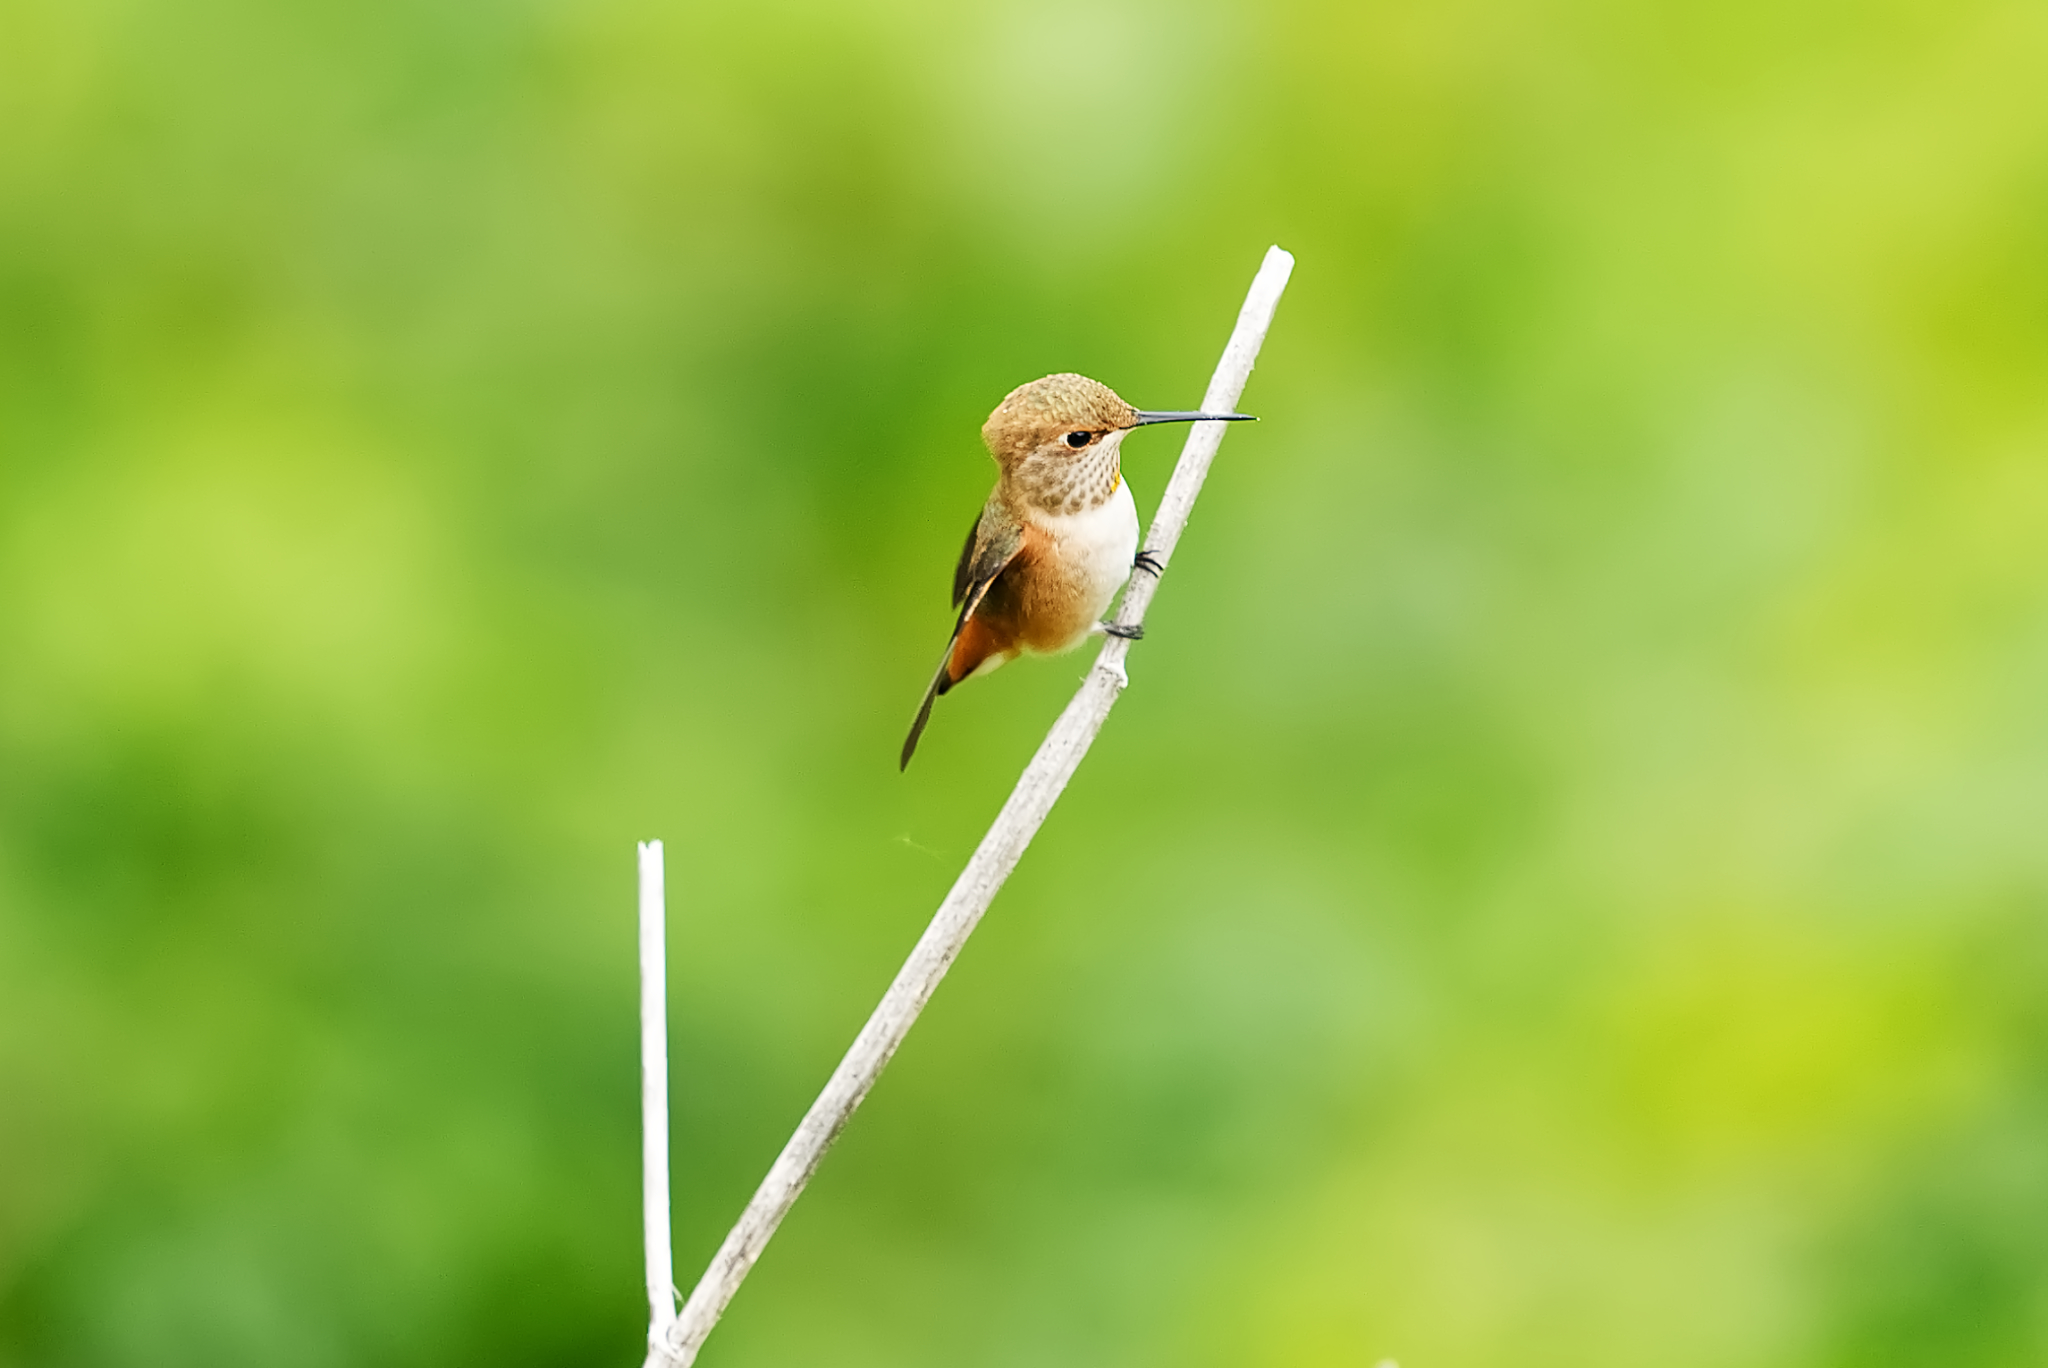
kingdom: Animalia
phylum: Chordata
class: Aves
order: Apodiformes
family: Trochilidae
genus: Selasphorus
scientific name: Selasphorus sasin
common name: Allen's hummingbird
